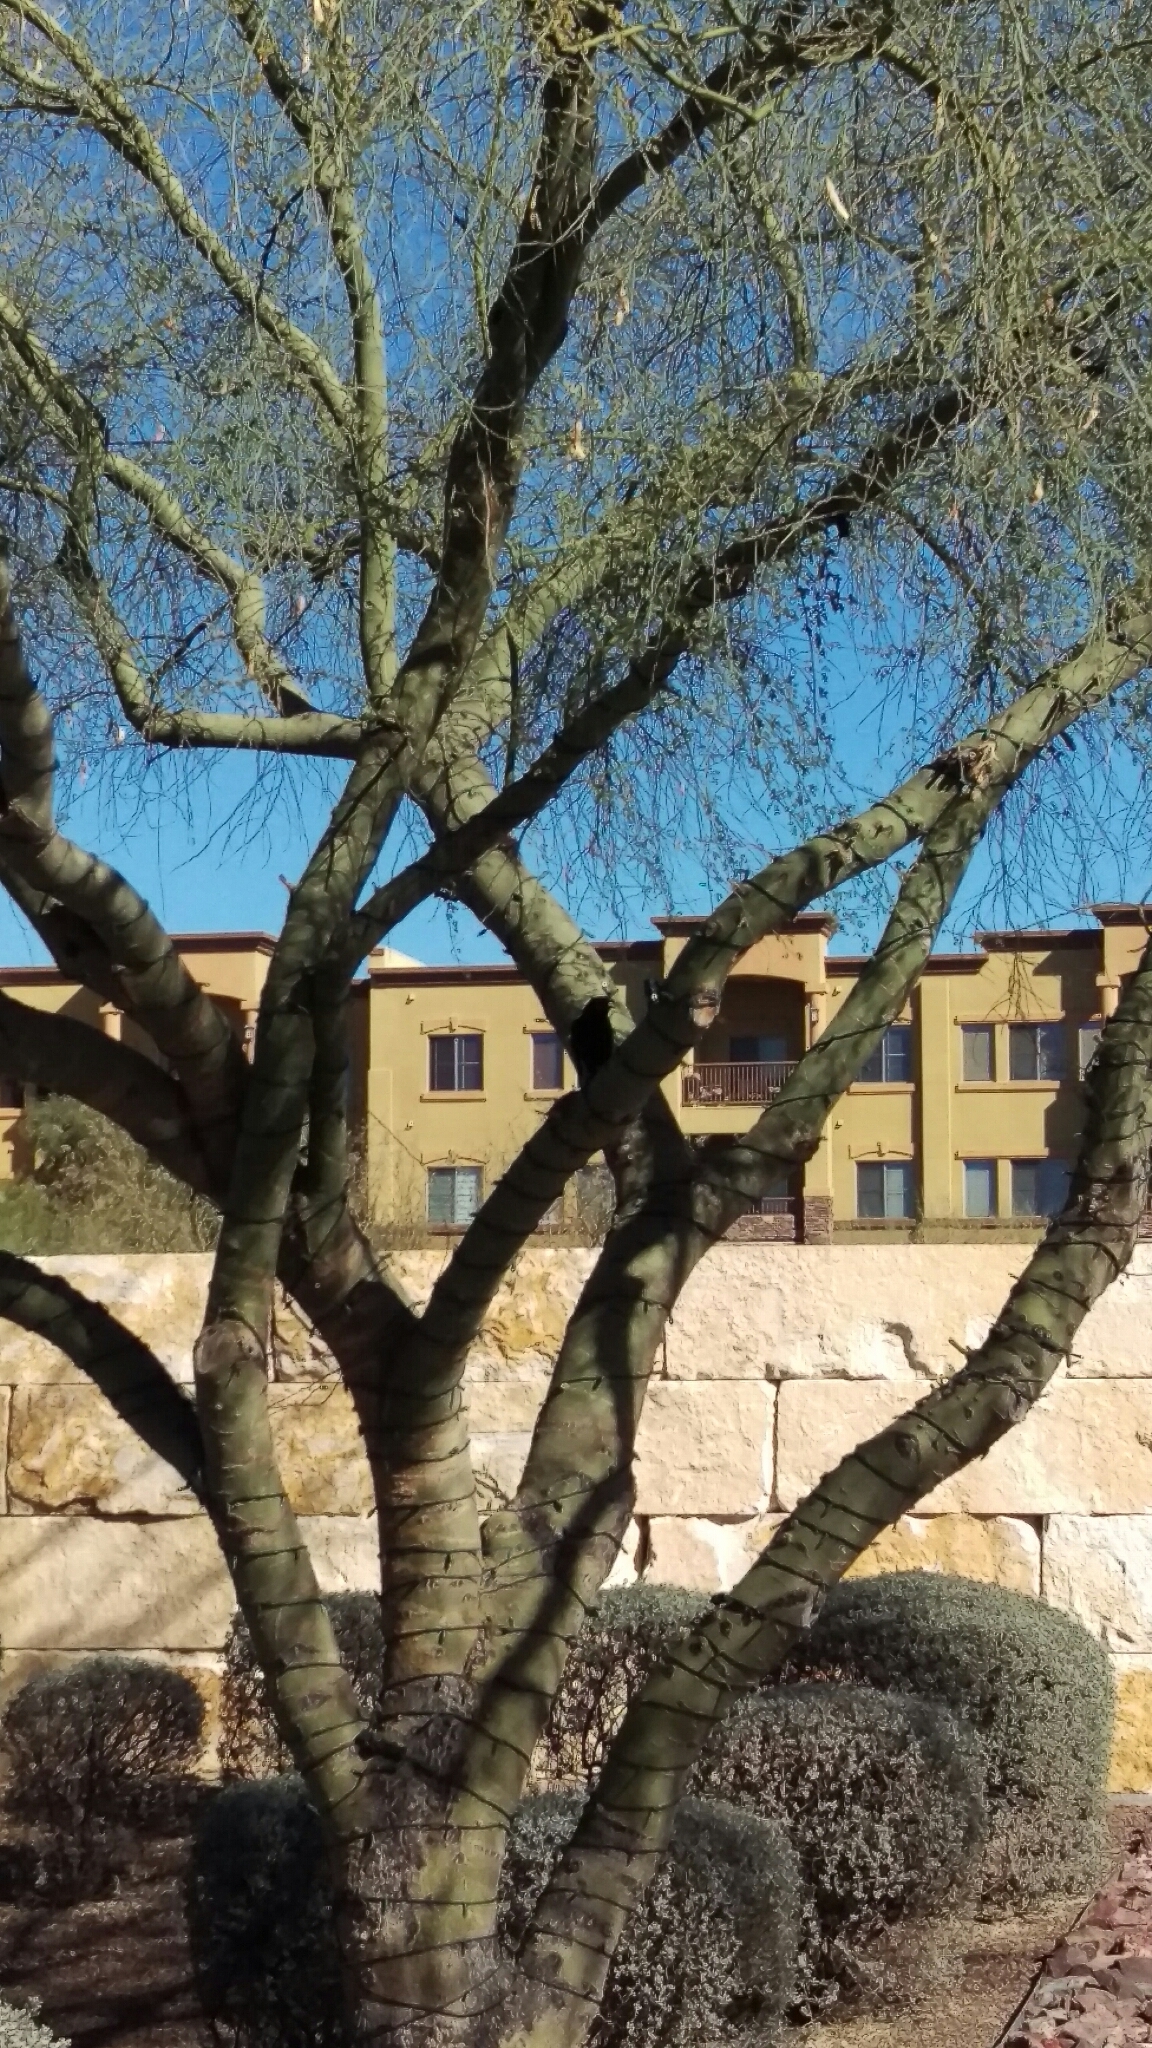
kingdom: Animalia
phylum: Chordata
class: Aves
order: Passeriformes
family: Icteridae
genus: Quiscalus
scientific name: Quiscalus mexicanus
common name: Great-tailed grackle
